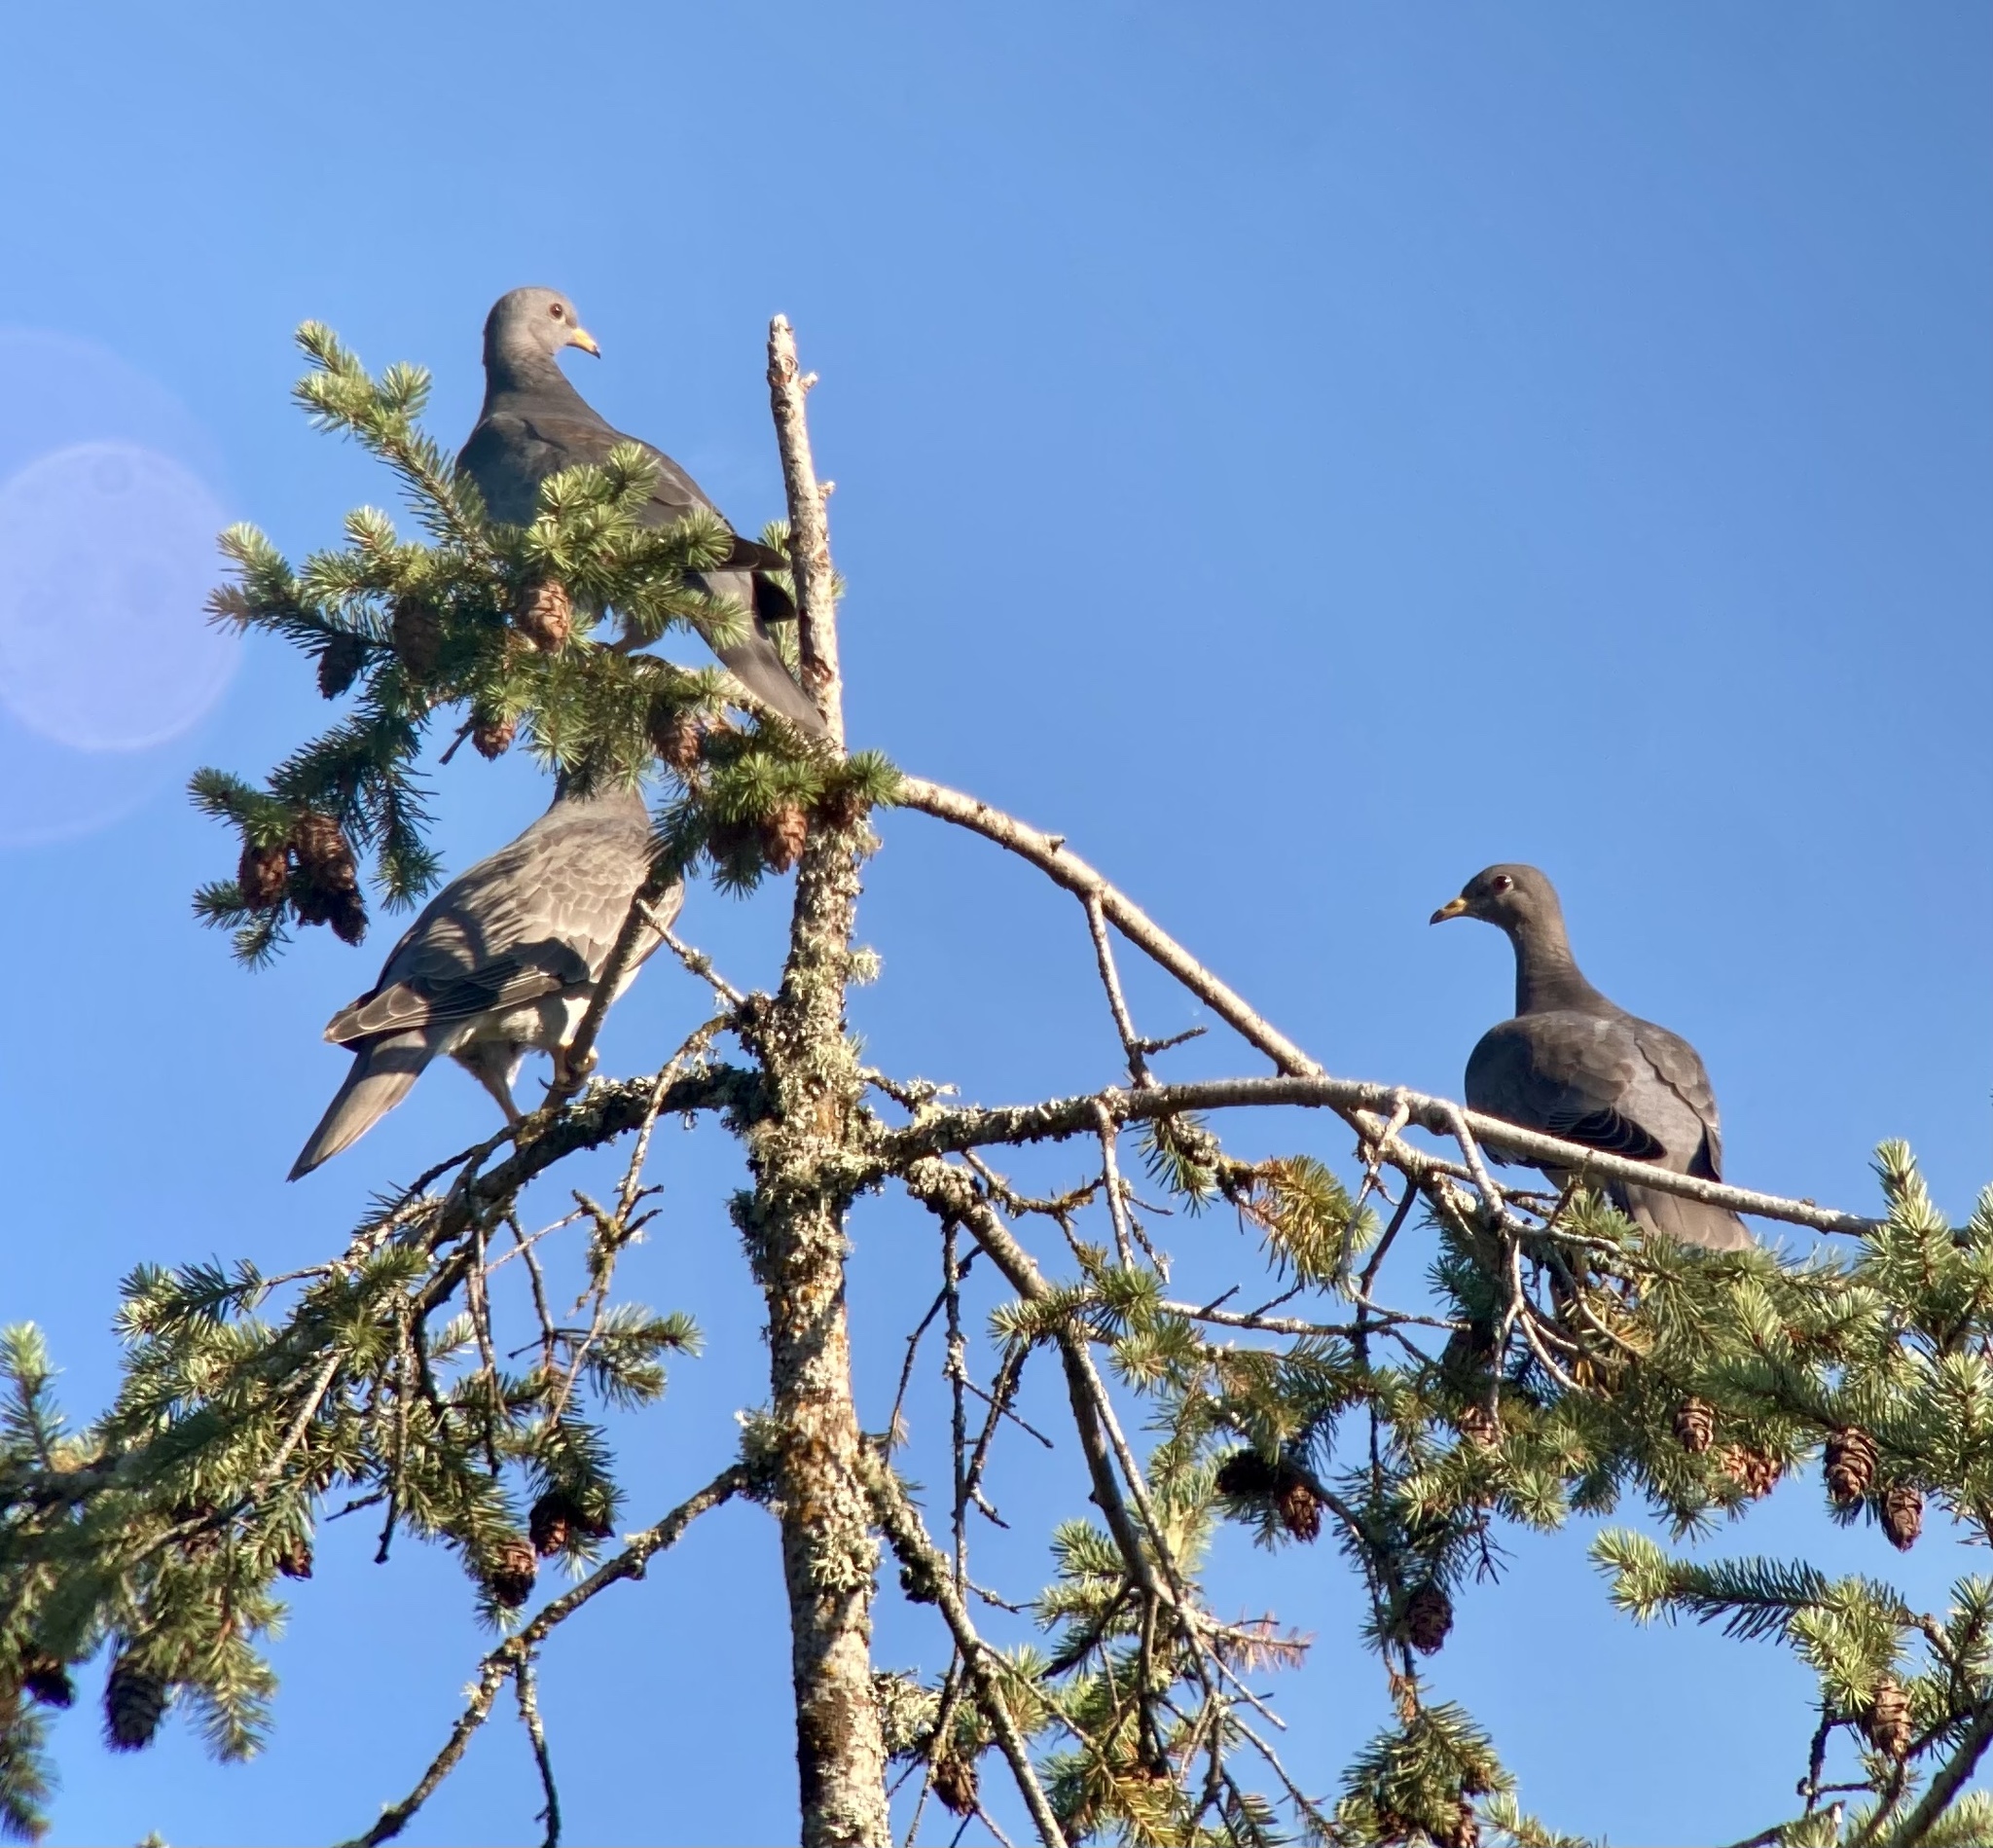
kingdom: Animalia
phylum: Chordata
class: Aves
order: Columbiformes
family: Columbidae
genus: Patagioenas
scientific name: Patagioenas fasciata
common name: Band-tailed pigeon
